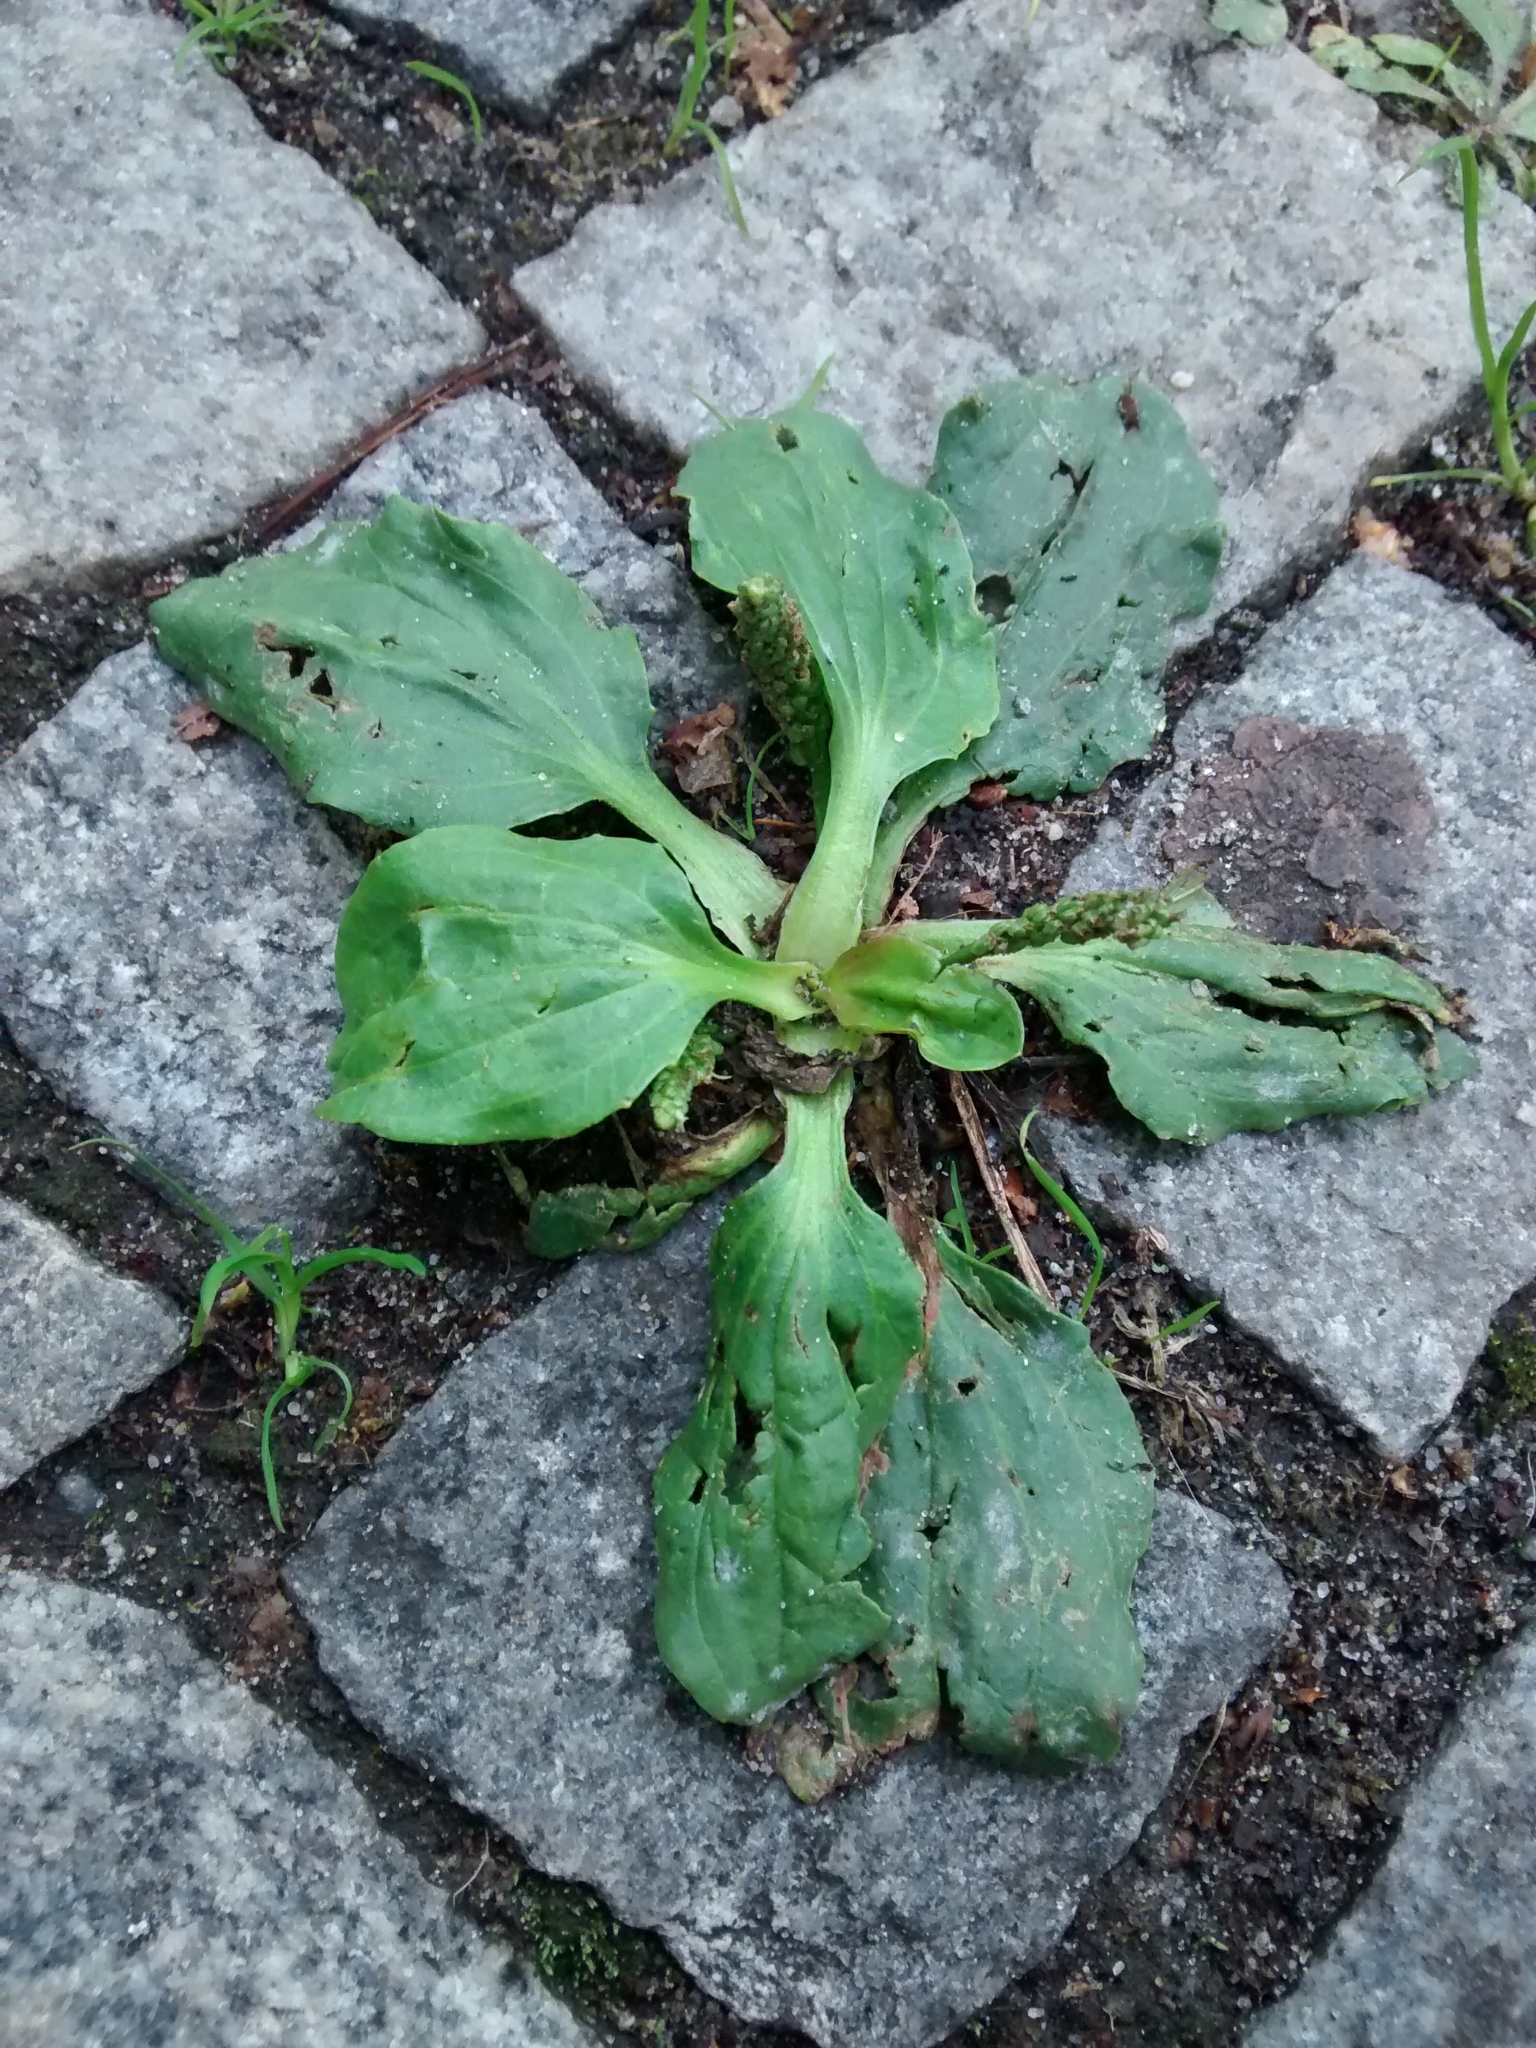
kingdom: Plantae
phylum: Tracheophyta
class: Magnoliopsida
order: Lamiales
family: Plantaginaceae
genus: Plantago
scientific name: Plantago major
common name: Common plantain
